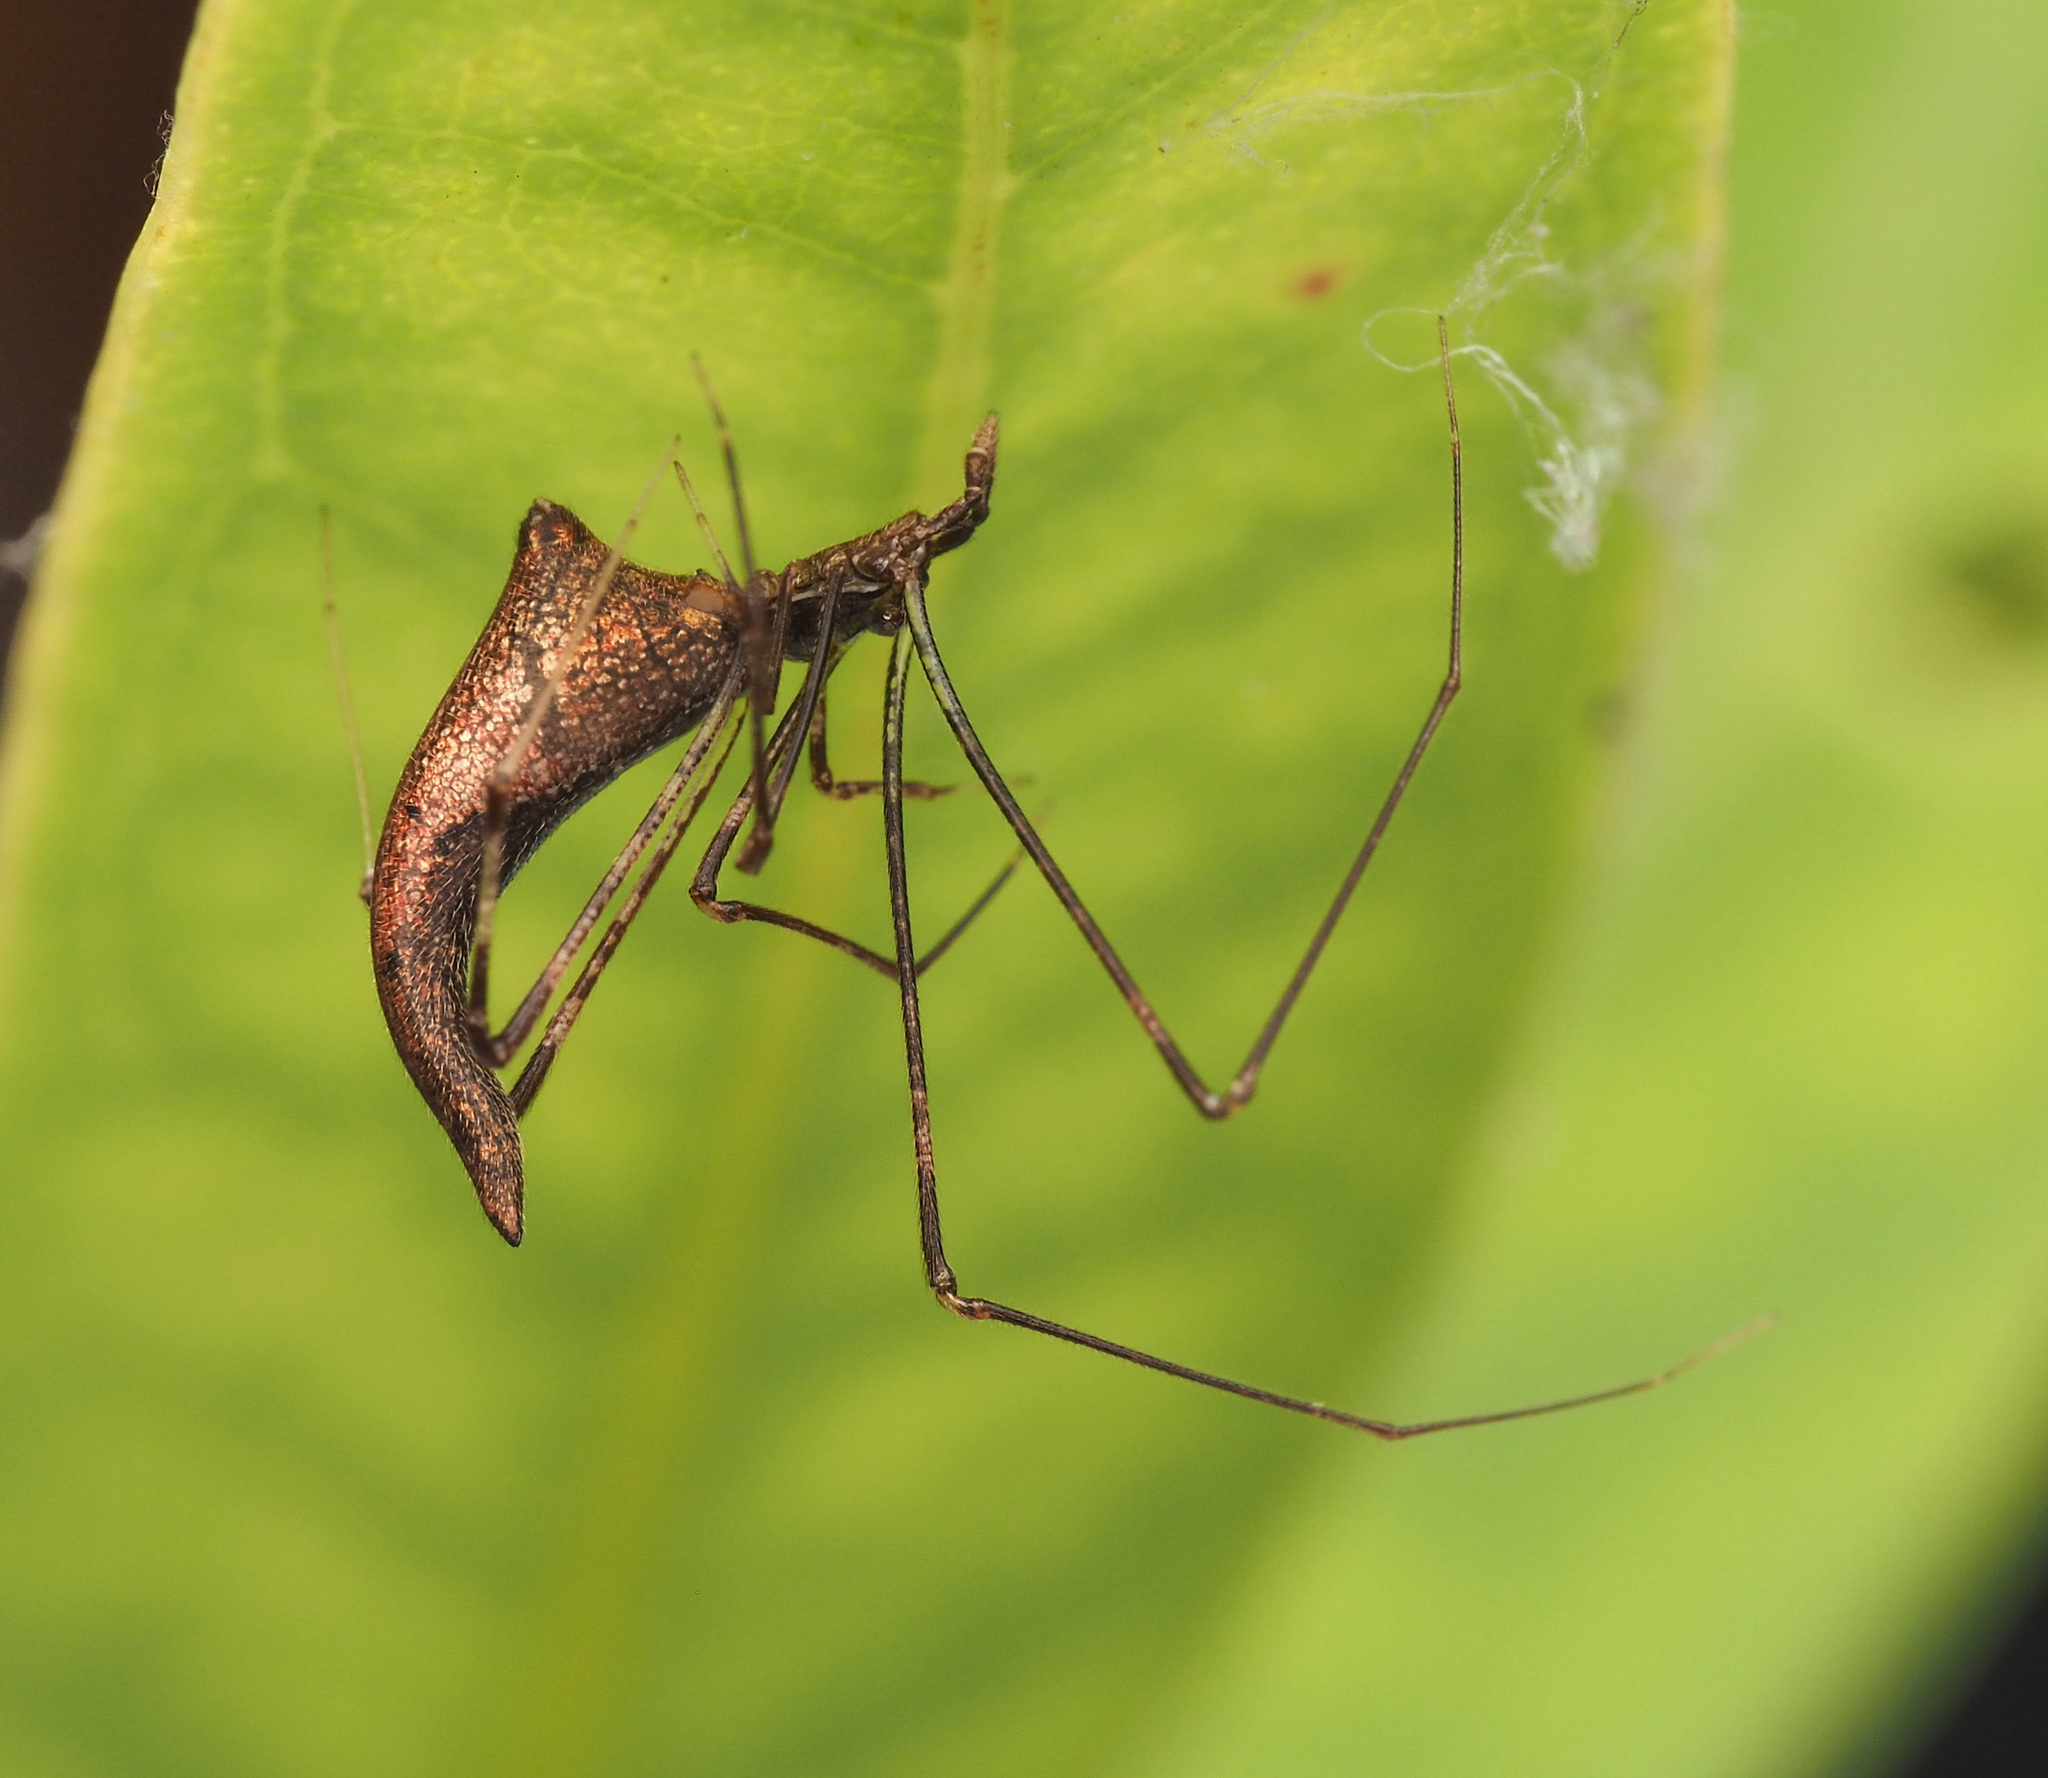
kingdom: Animalia
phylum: Arthropoda
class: Arachnida
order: Araneae
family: Theridiidae
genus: Rhomphaea
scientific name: Rhomphaea
